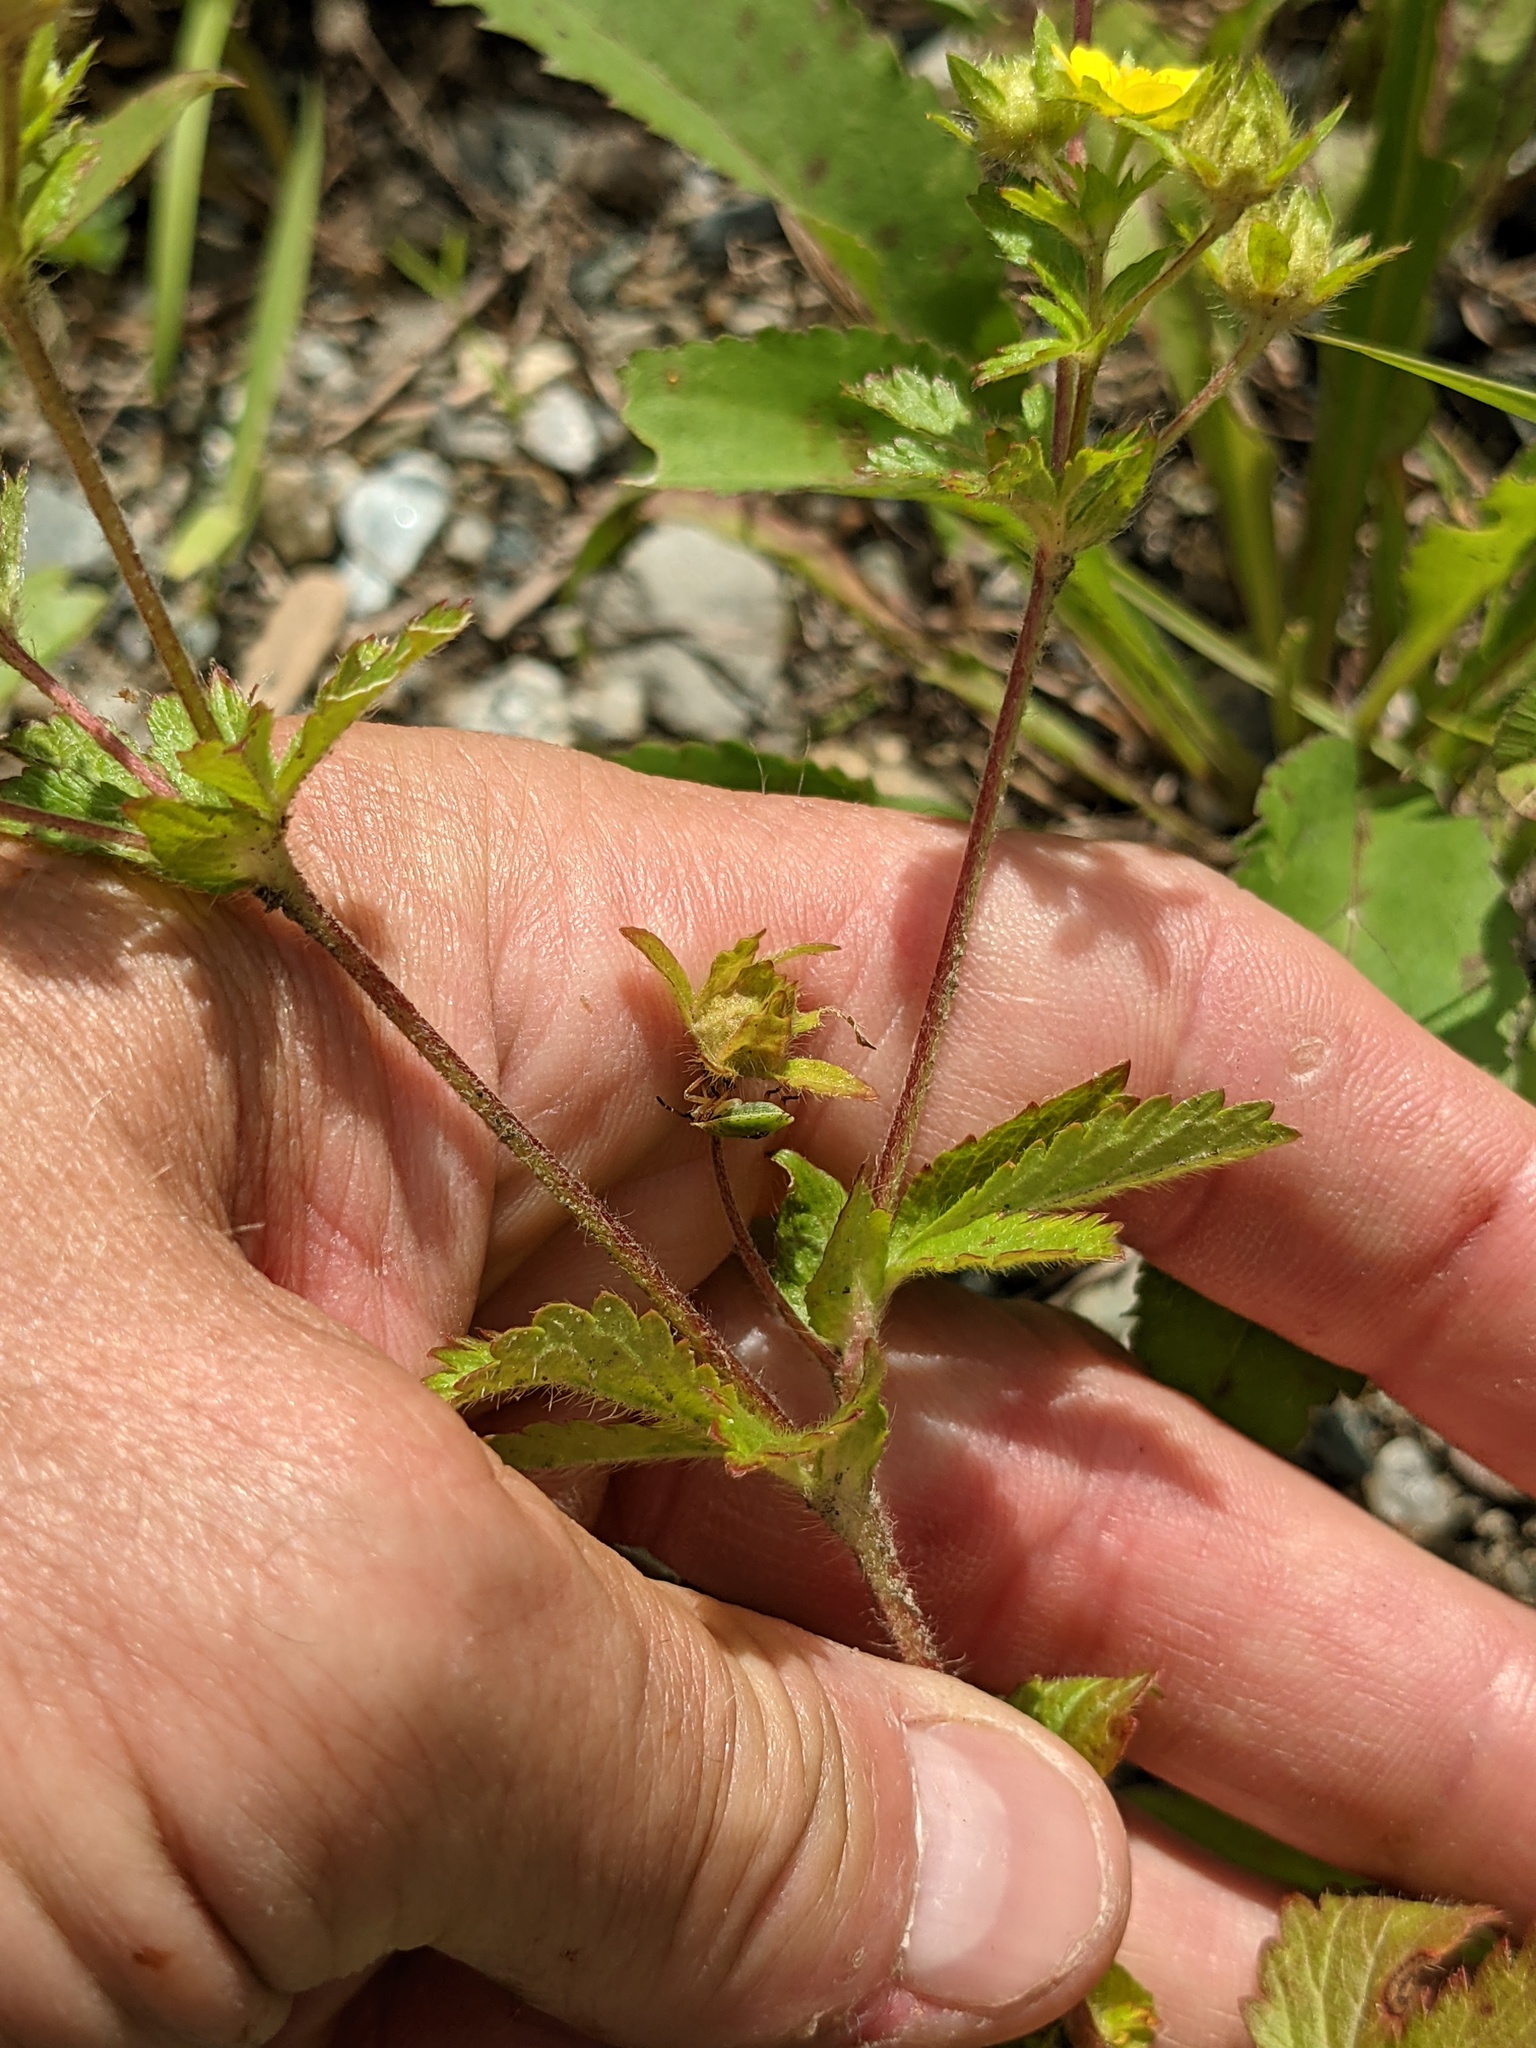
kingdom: Plantae
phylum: Tracheophyta
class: Magnoliopsida
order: Rosales
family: Rosaceae
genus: Potentilla
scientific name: Potentilla norvegica
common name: Ternate-leaved cinquefoil
